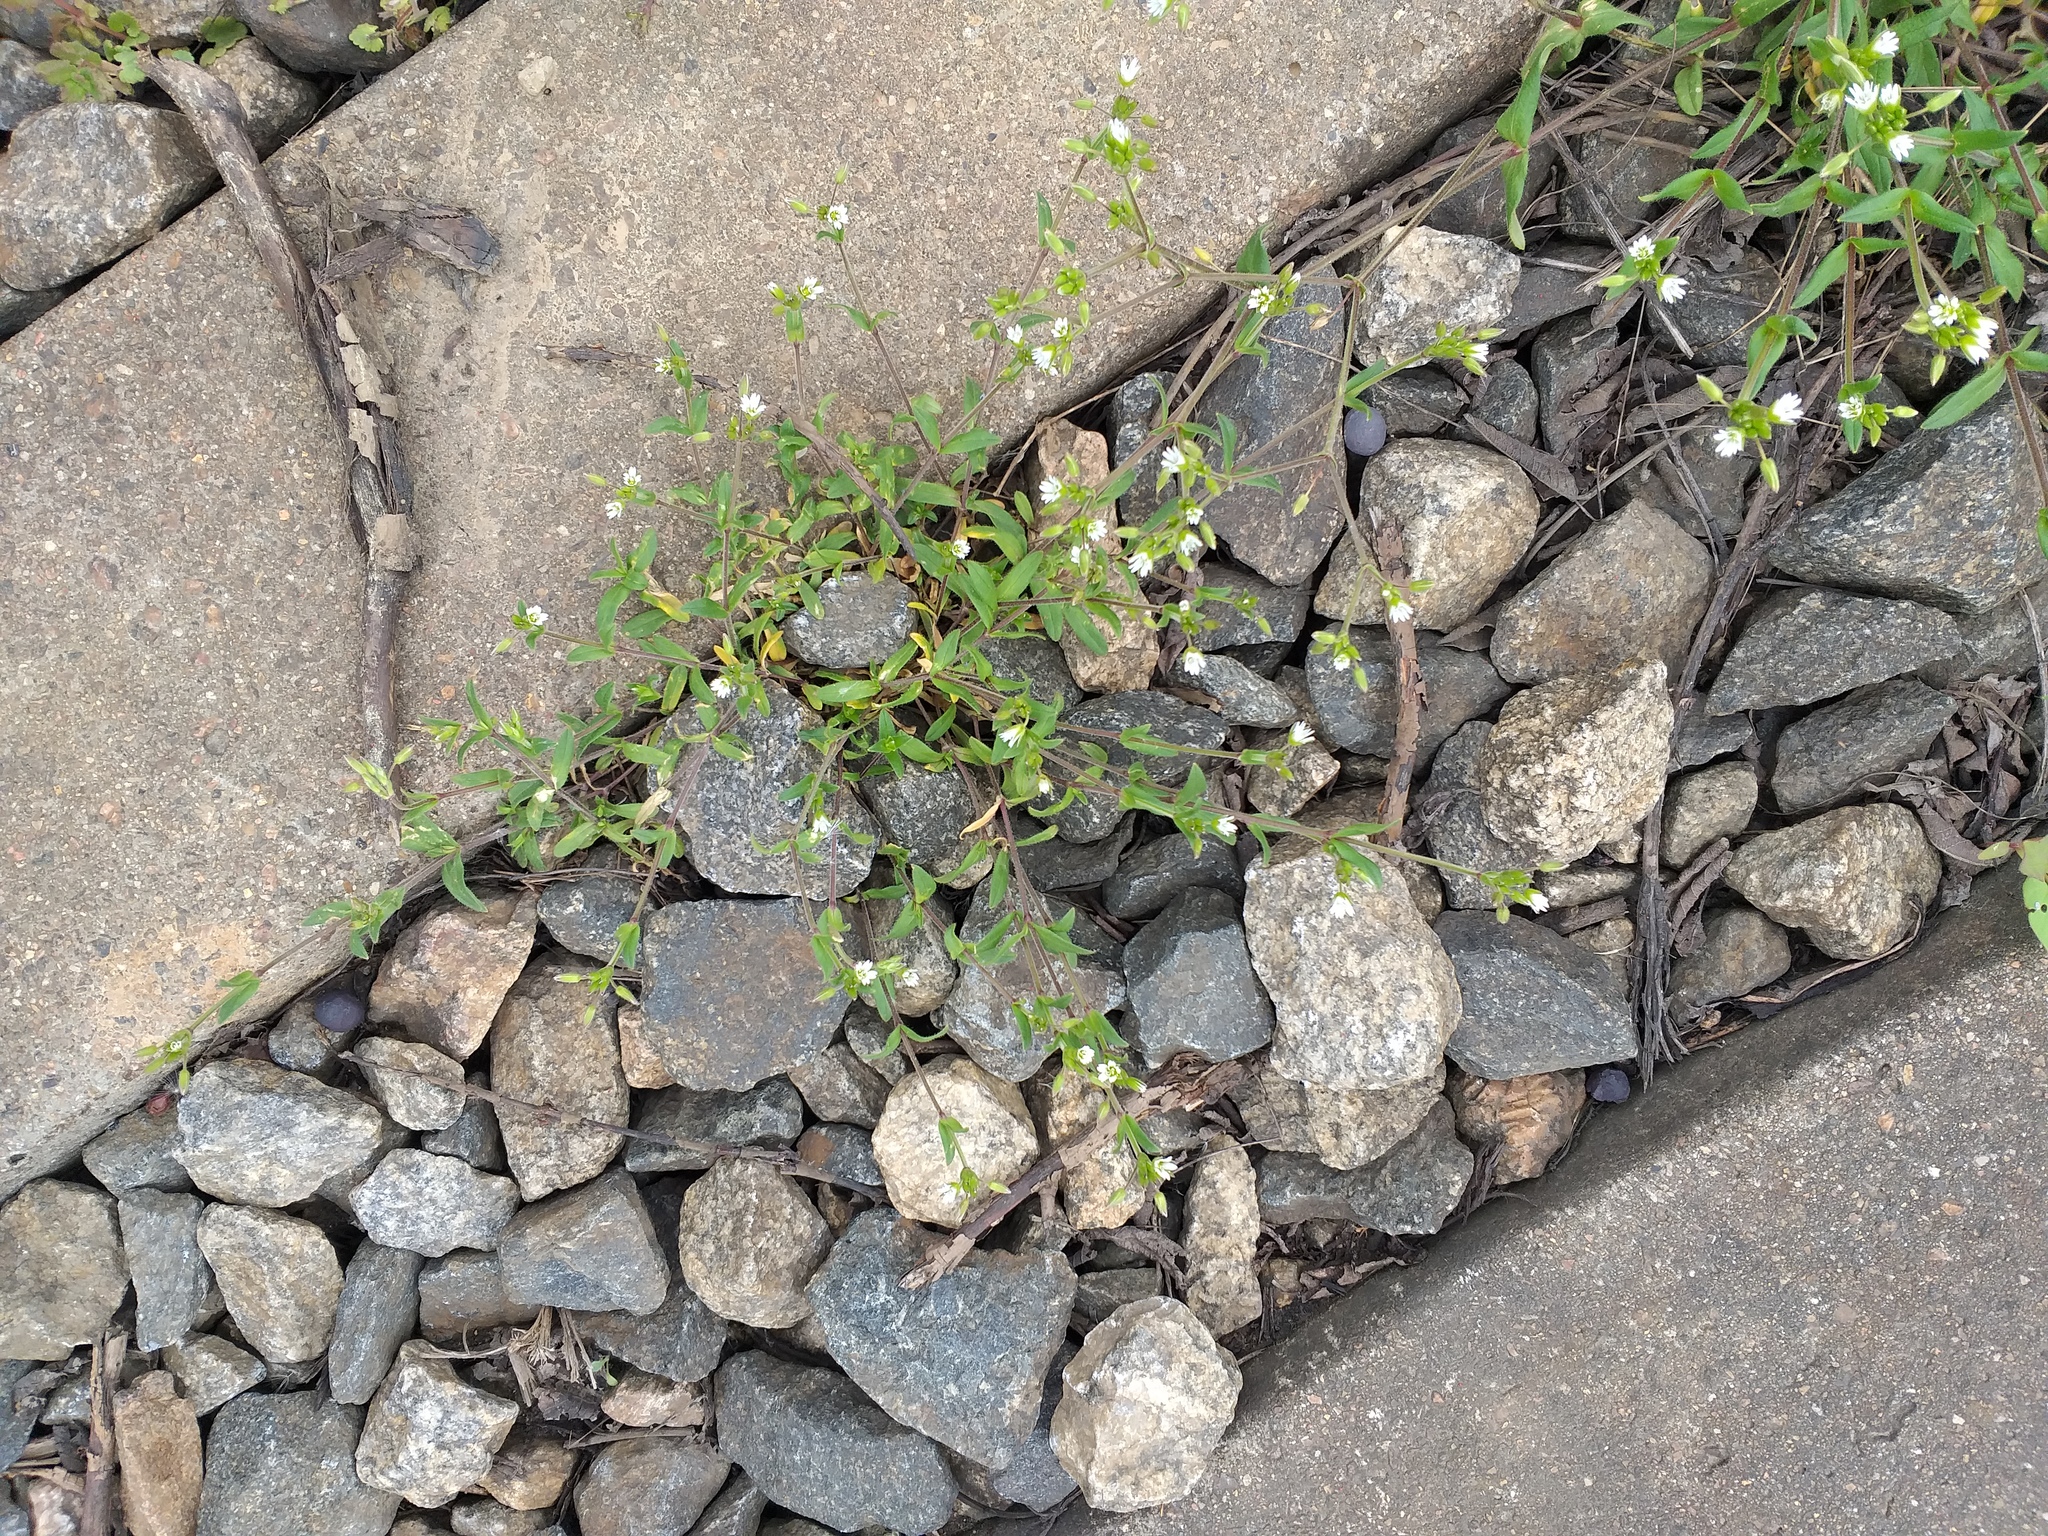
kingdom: Plantae
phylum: Tracheophyta
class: Magnoliopsida
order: Caryophyllales
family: Caryophyllaceae
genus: Cerastium
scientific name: Cerastium holosteoides
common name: Big chickweed
